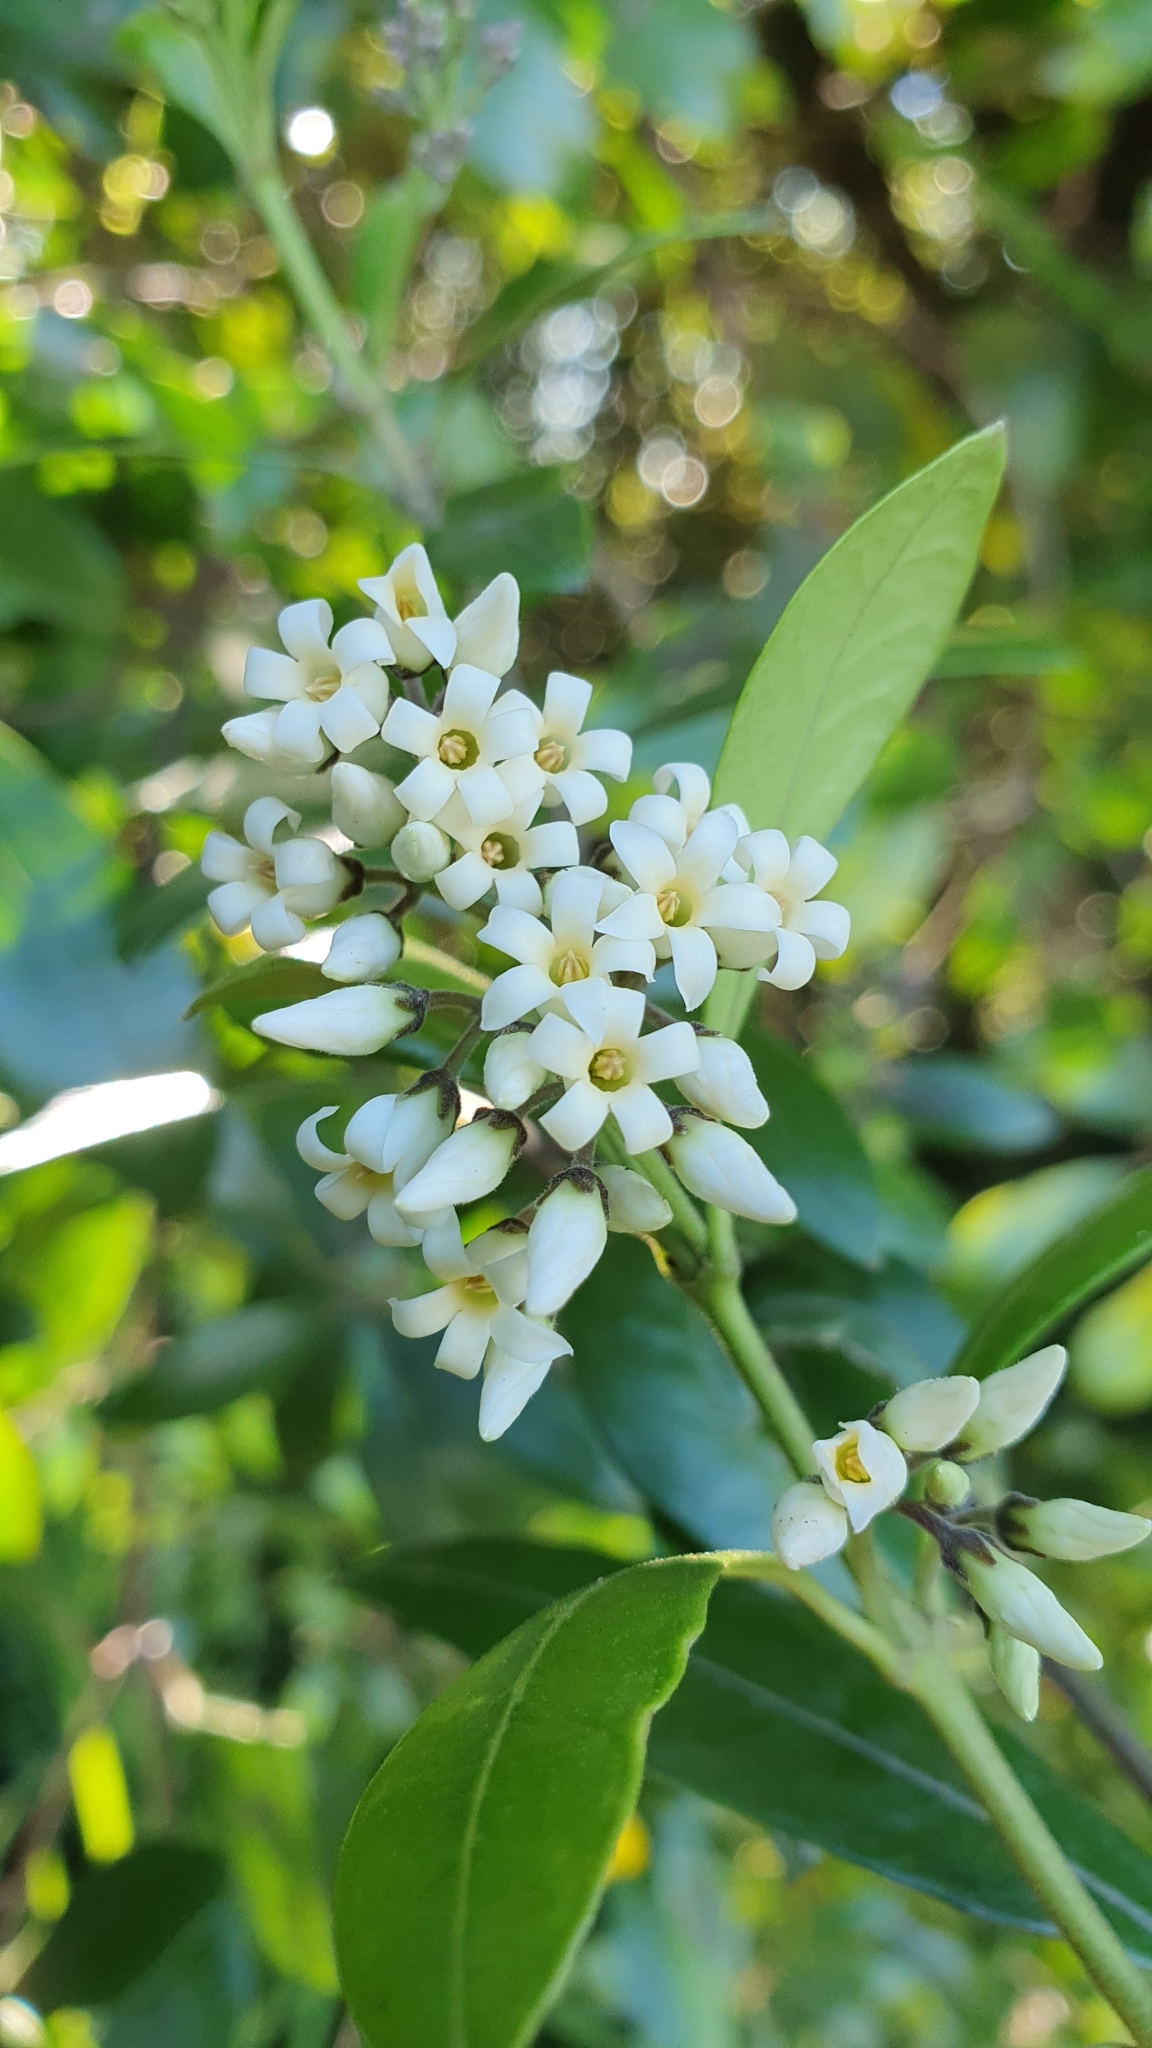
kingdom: Plantae
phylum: Tracheophyta
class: Magnoliopsida
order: Gentianales
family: Apocynaceae
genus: Parsonsia
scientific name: Parsonsia heterophylla
